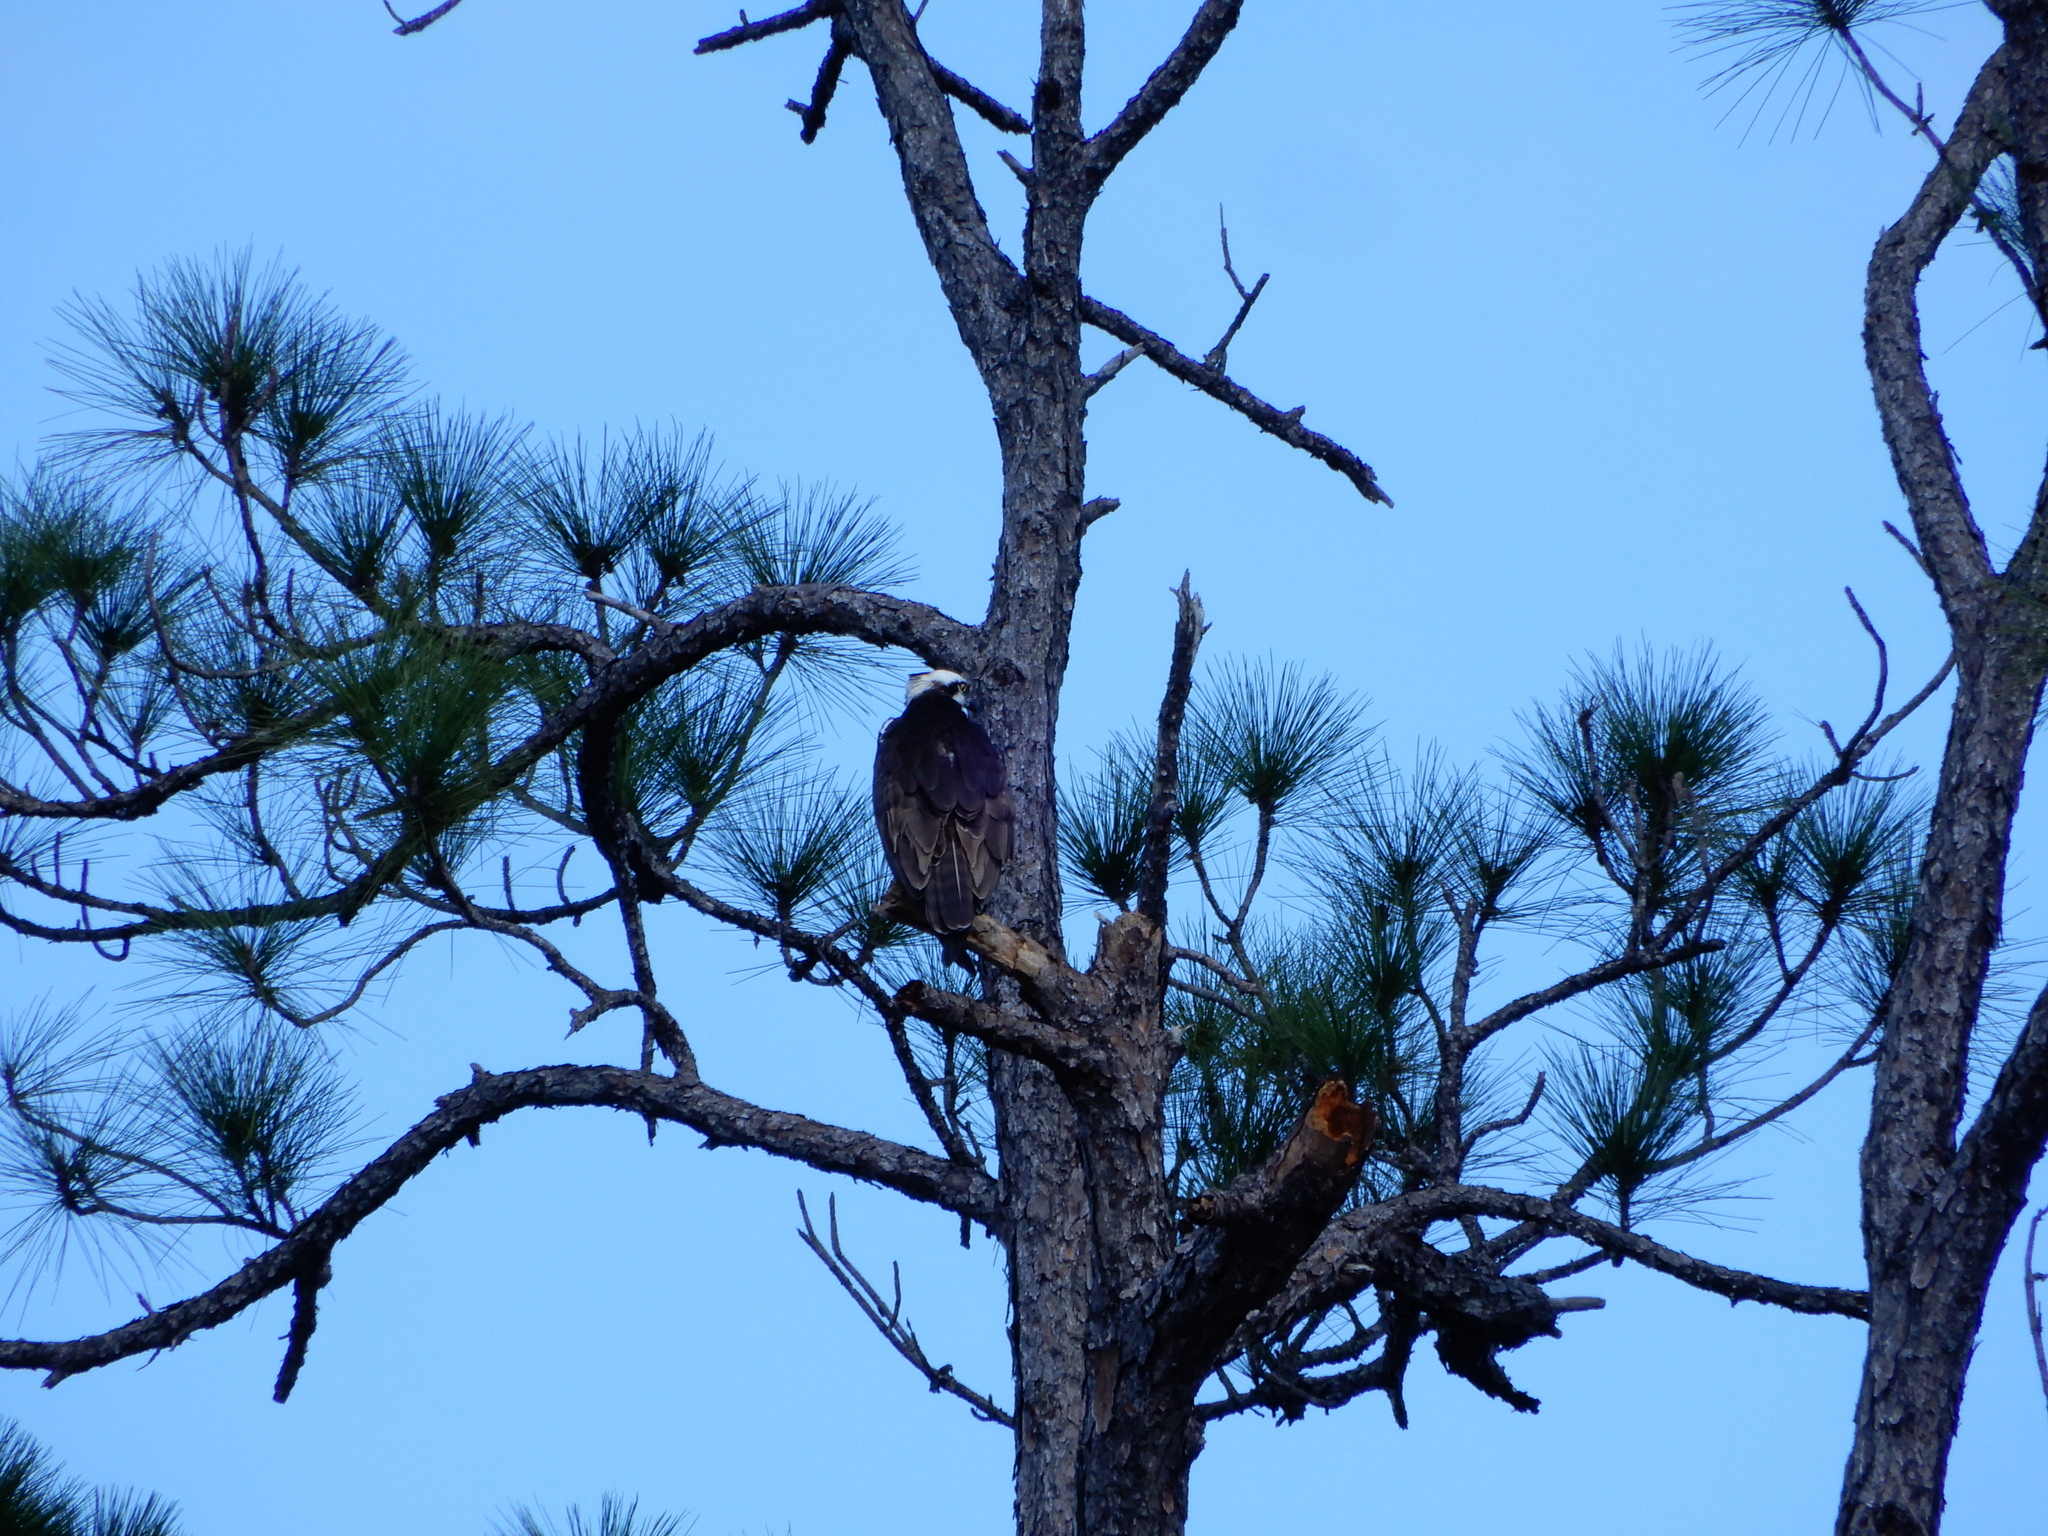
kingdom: Animalia
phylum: Chordata
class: Aves
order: Accipitriformes
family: Pandionidae
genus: Pandion
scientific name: Pandion haliaetus
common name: Osprey
